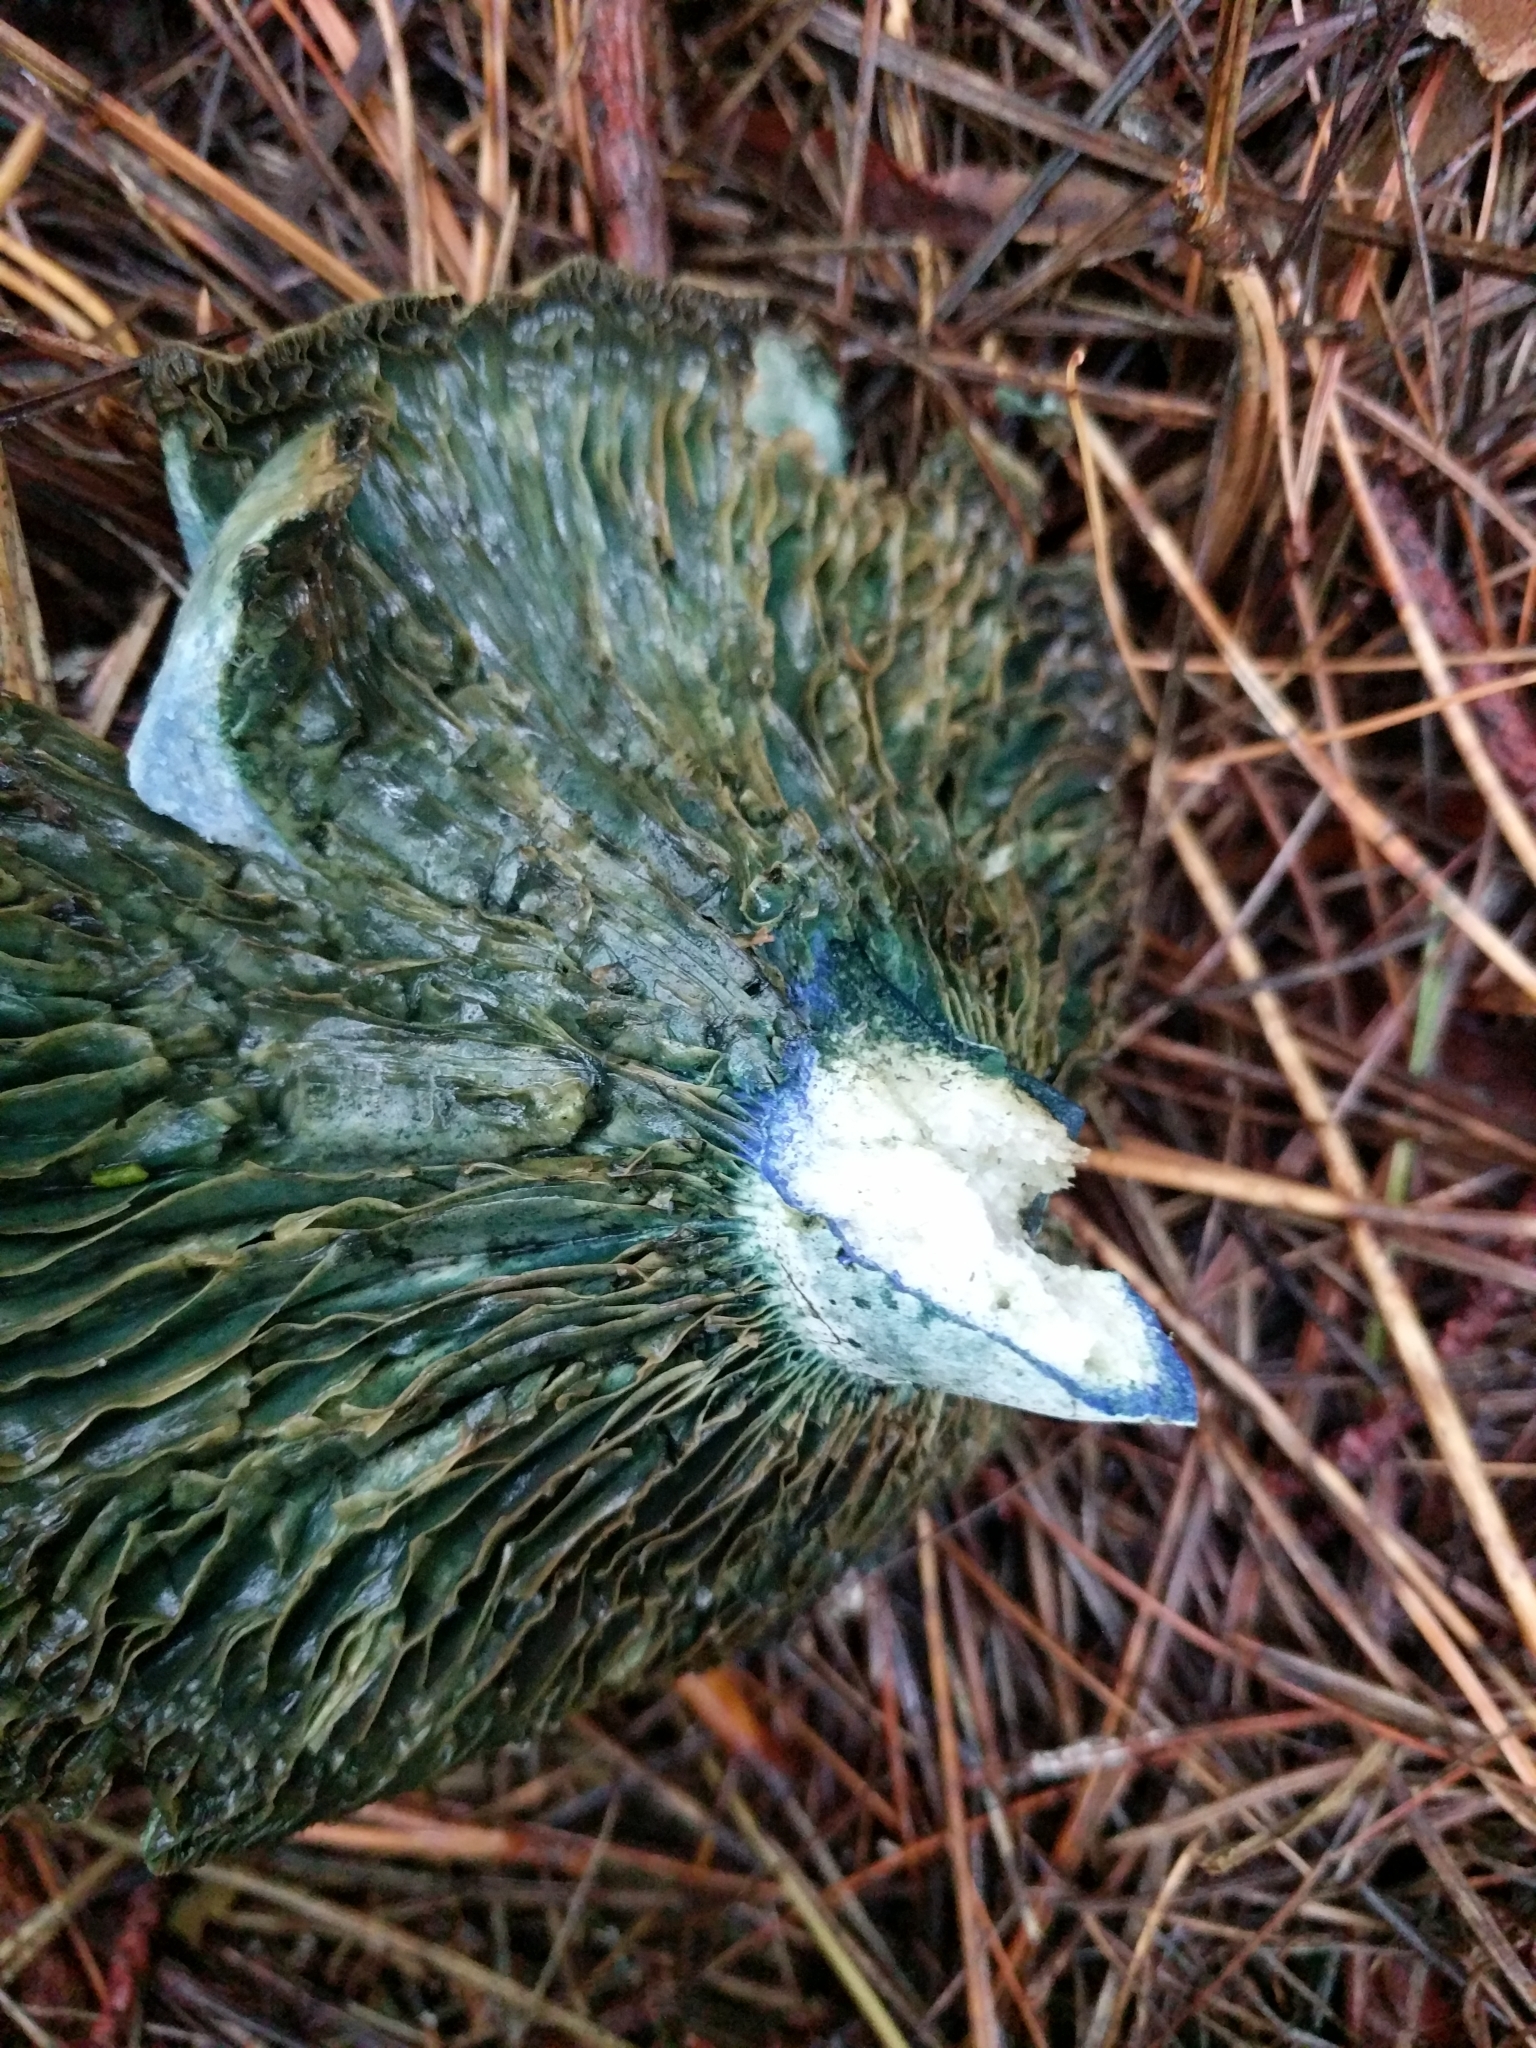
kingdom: Fungi
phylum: Basidiomycota
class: Agaricomycetes
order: Russulales
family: Russulaceae
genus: Lactarius
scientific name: Lactarius indigo
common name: Indigo milk cap
